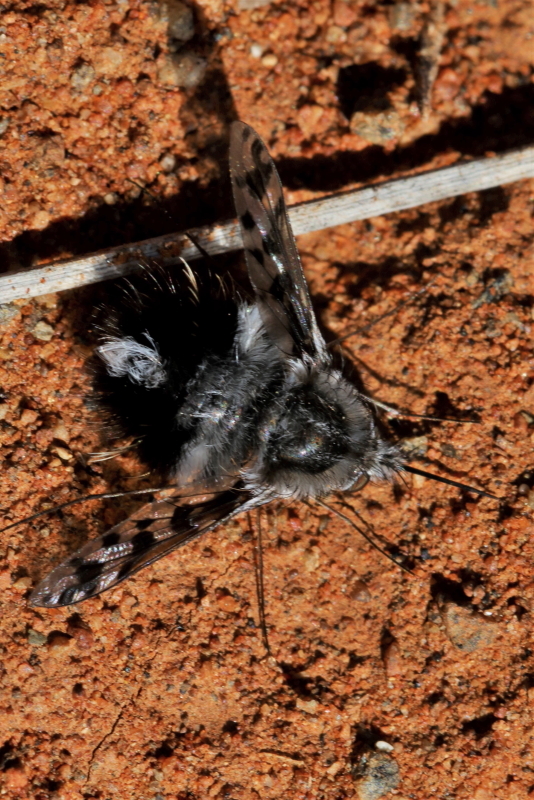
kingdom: Animalia
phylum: Arthropoda
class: Insecta
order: Diptera
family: Bombyliidae
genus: Australoechus
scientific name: Australoechus megaspilus
